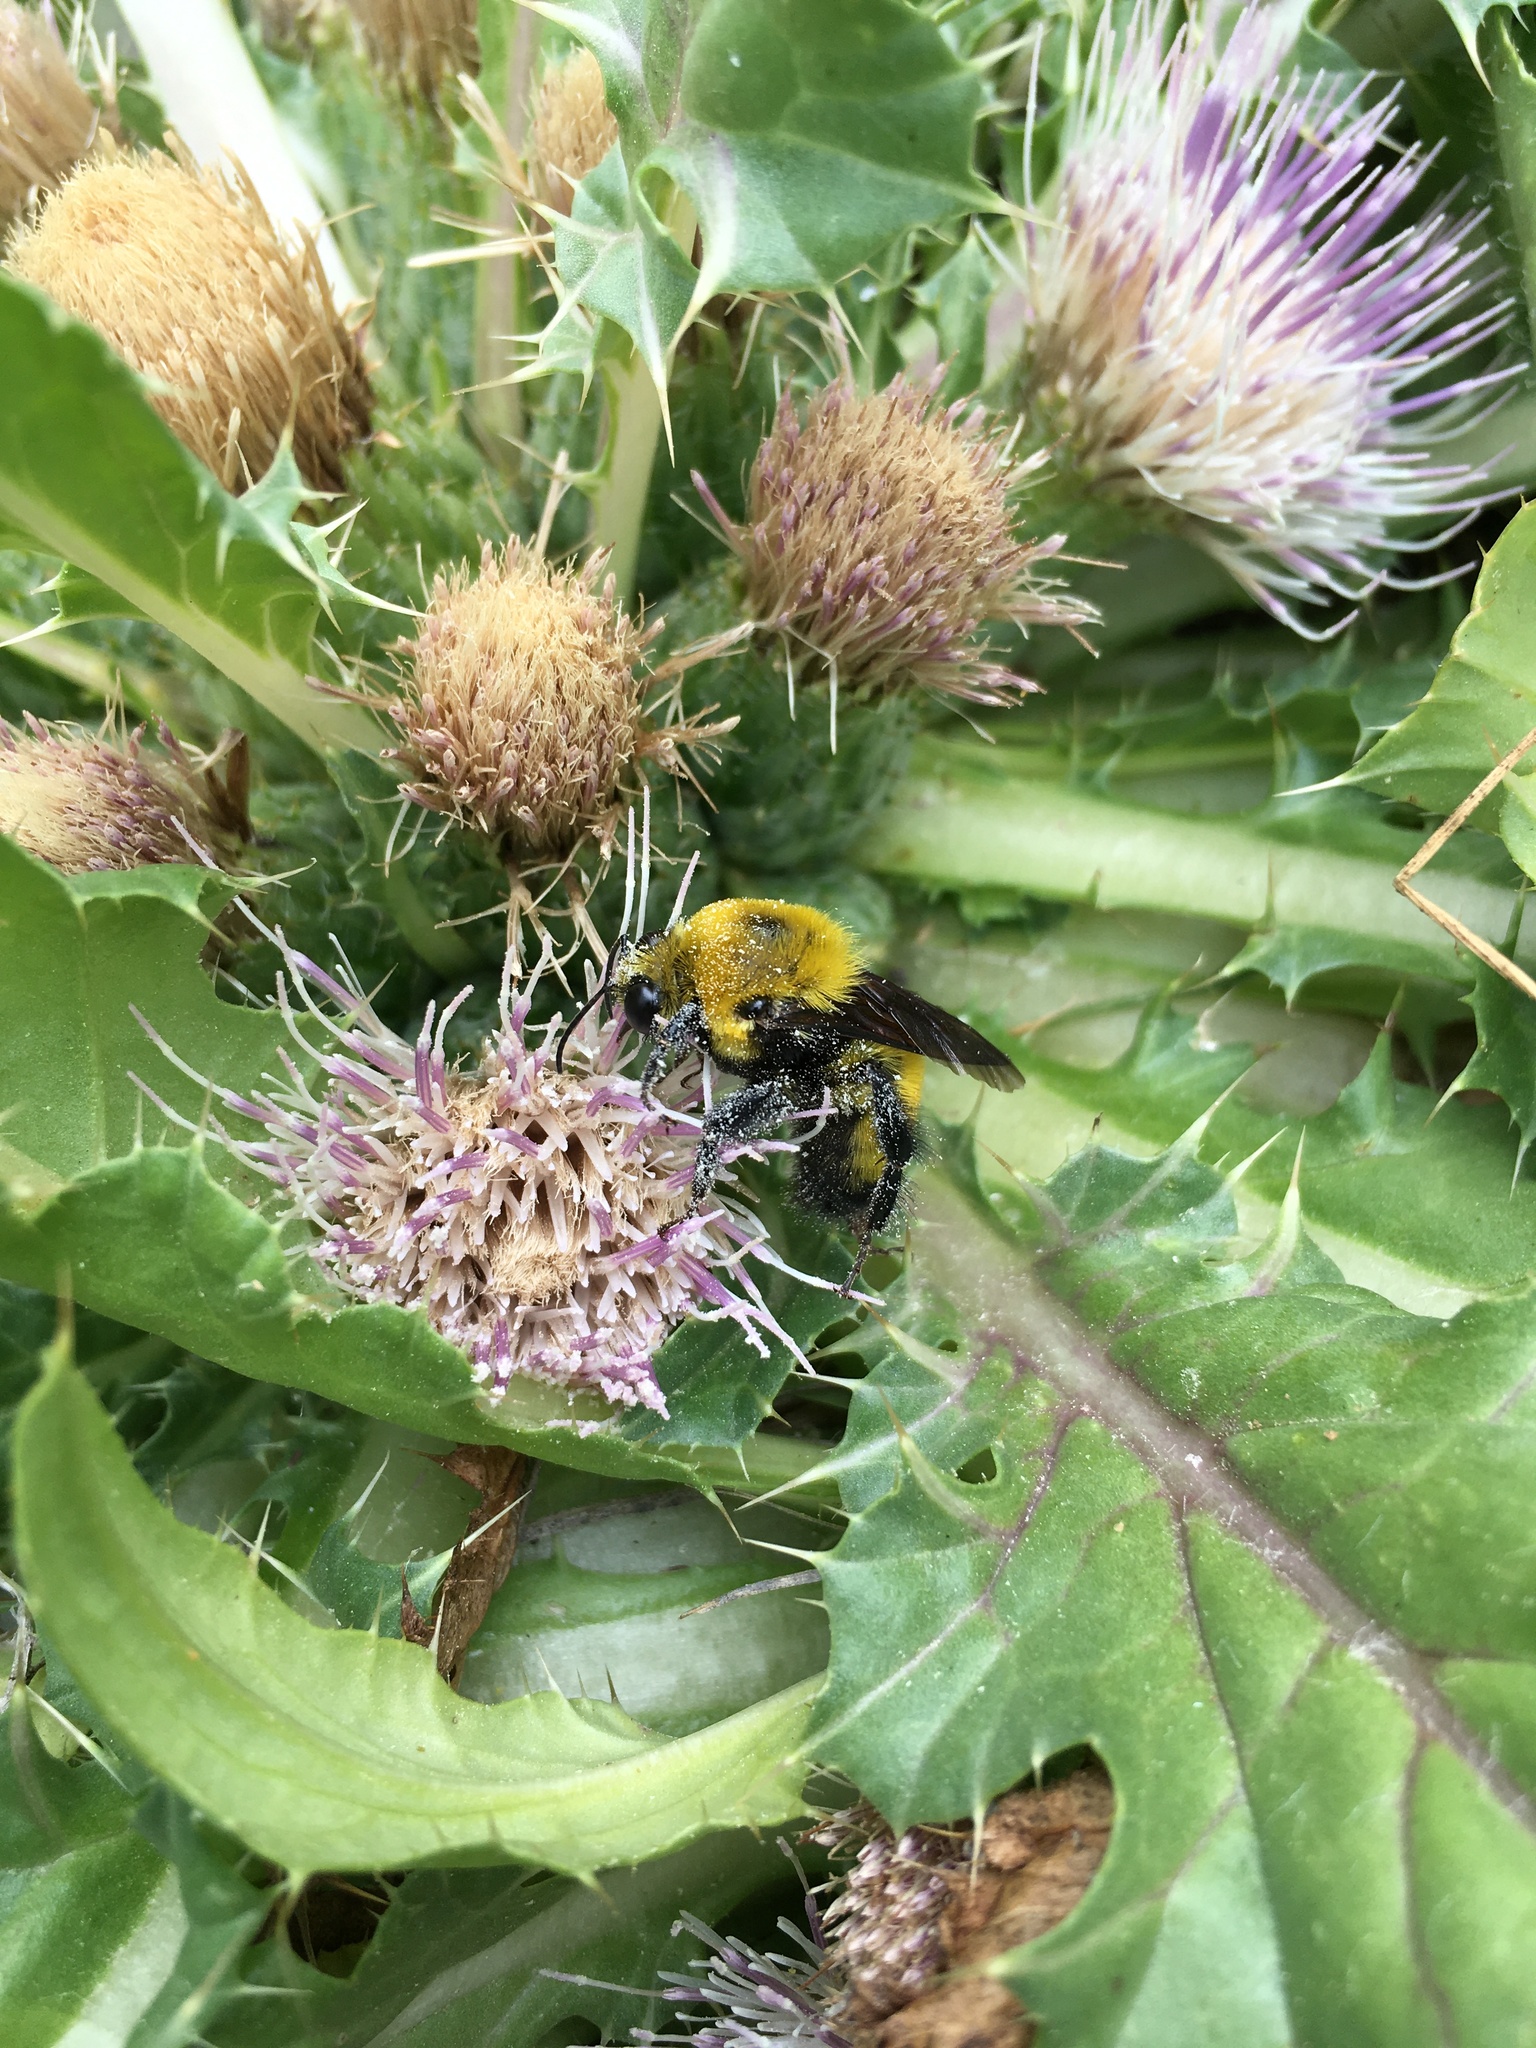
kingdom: Plantae
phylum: Tracheophyta
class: Magnoliopsida
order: Asterales
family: Asteraceae
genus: Cirsium
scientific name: Cirsium scariosum
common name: Meadow thistle
